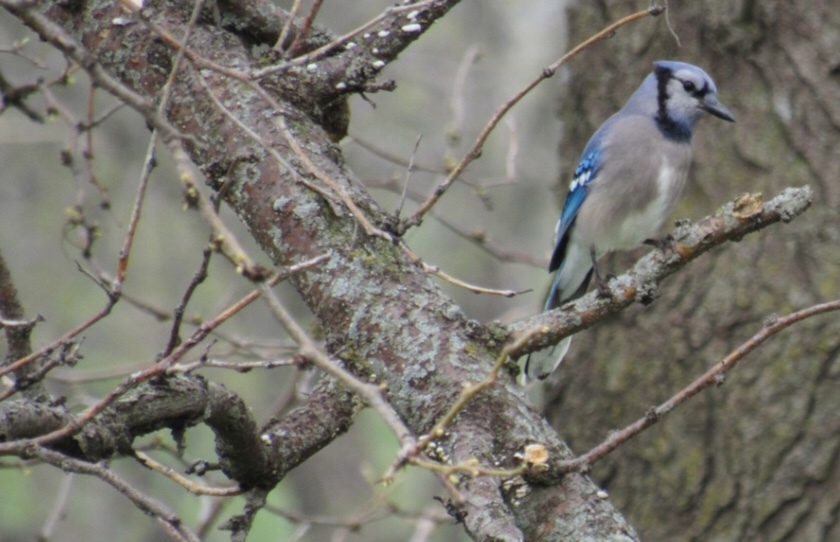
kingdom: Animalia
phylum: Chordata
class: Aves
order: Passeriformes
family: Corvidae
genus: Cyanocitta
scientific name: Cyanocitta cristata
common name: Blue jay
